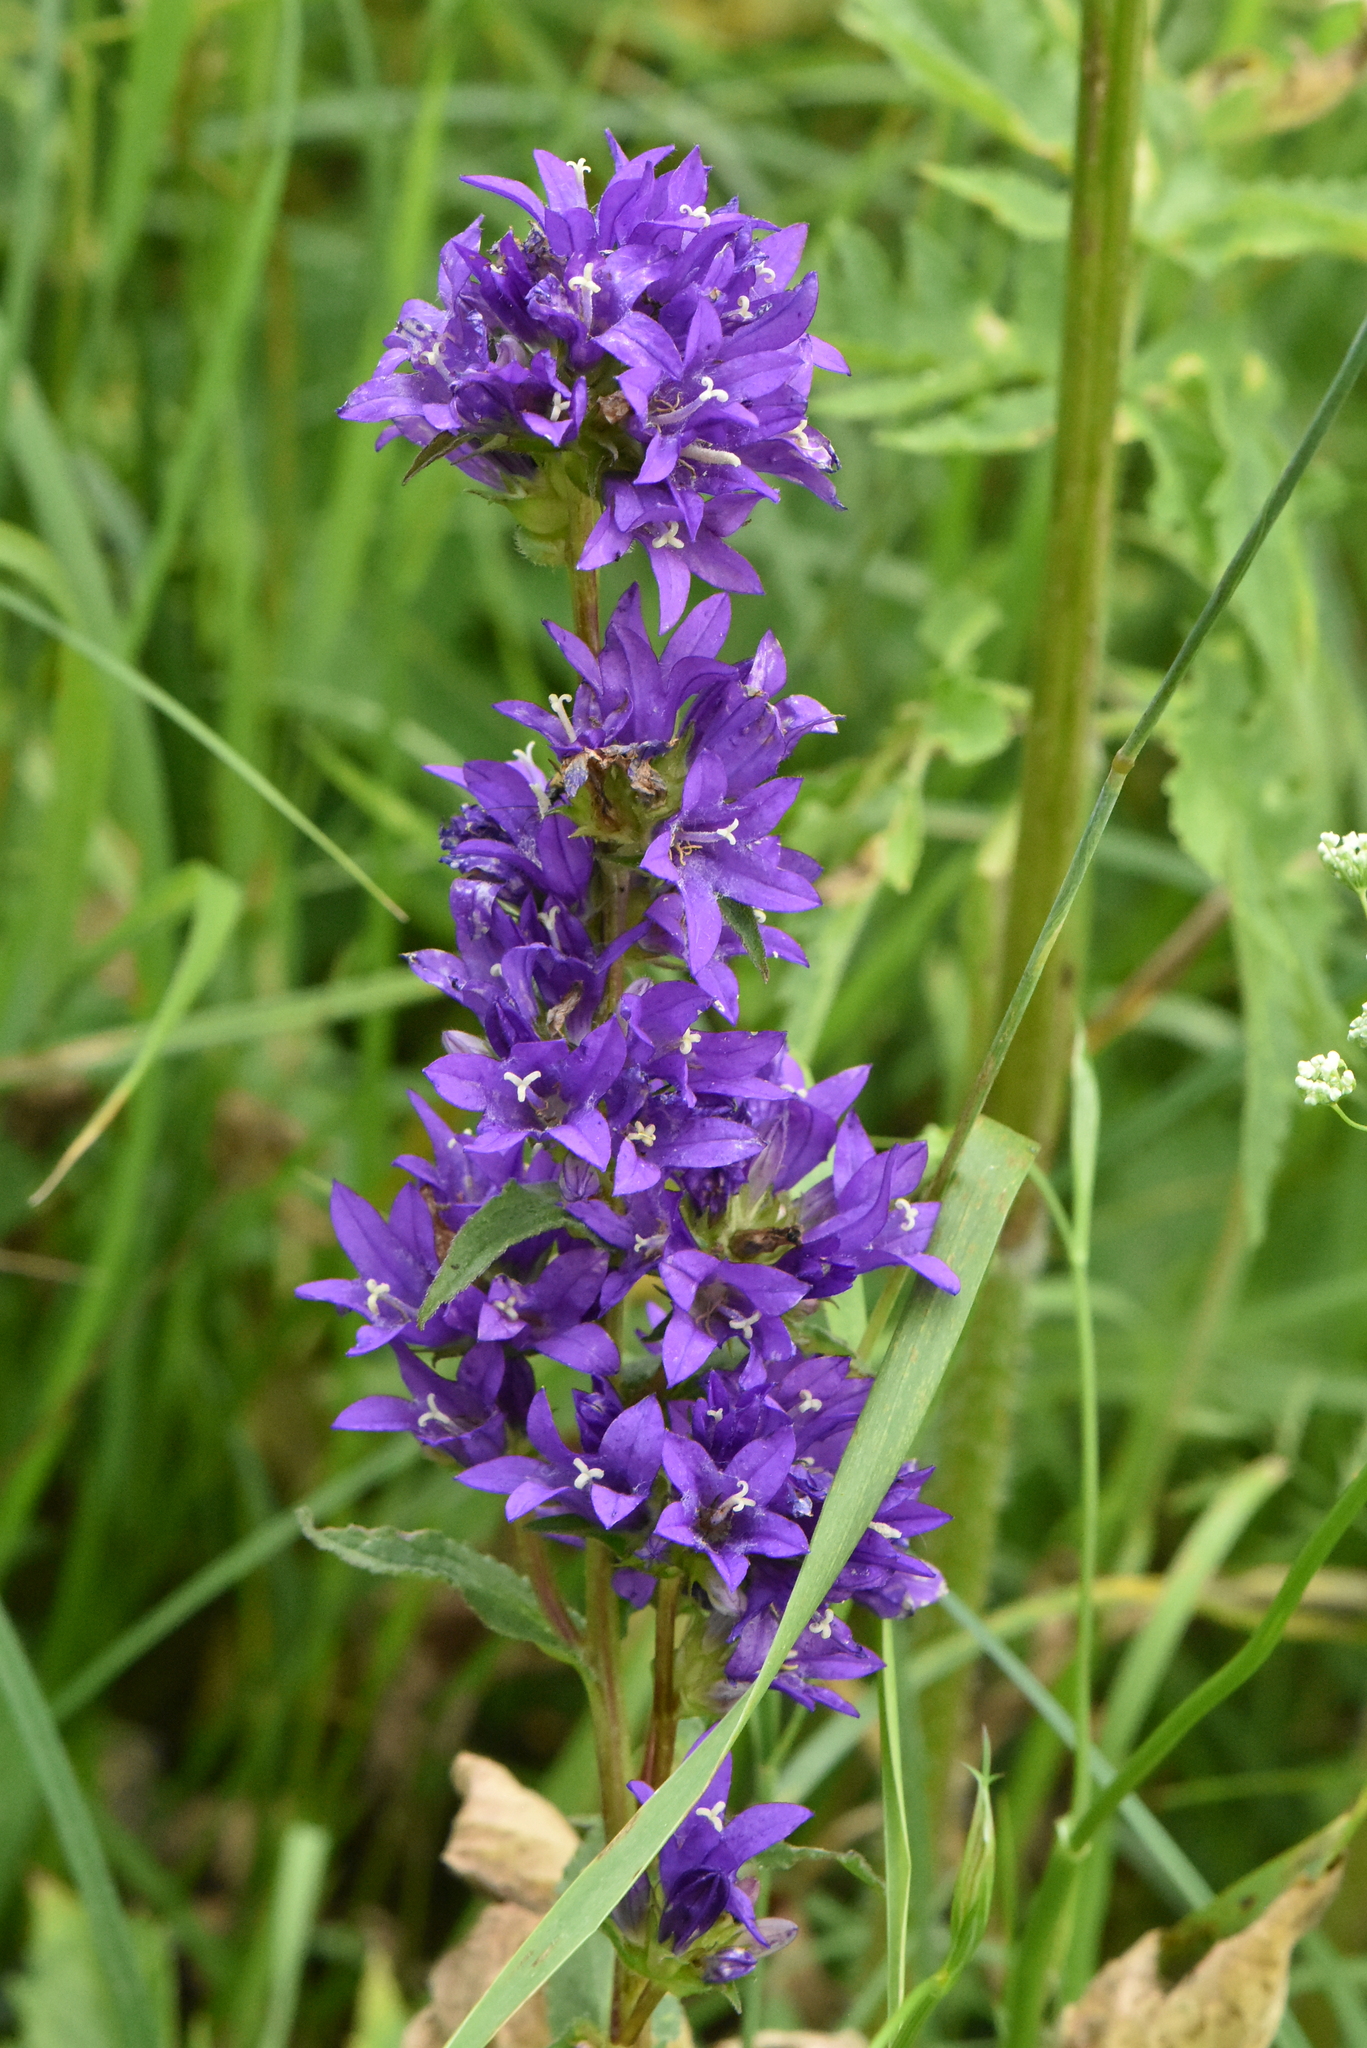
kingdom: Plantae
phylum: Tracheophyta
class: Magnoliopsida
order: Asterales
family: Campanulaceae
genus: Campanula
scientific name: Campanula glomerata
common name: Clustered bellflower
